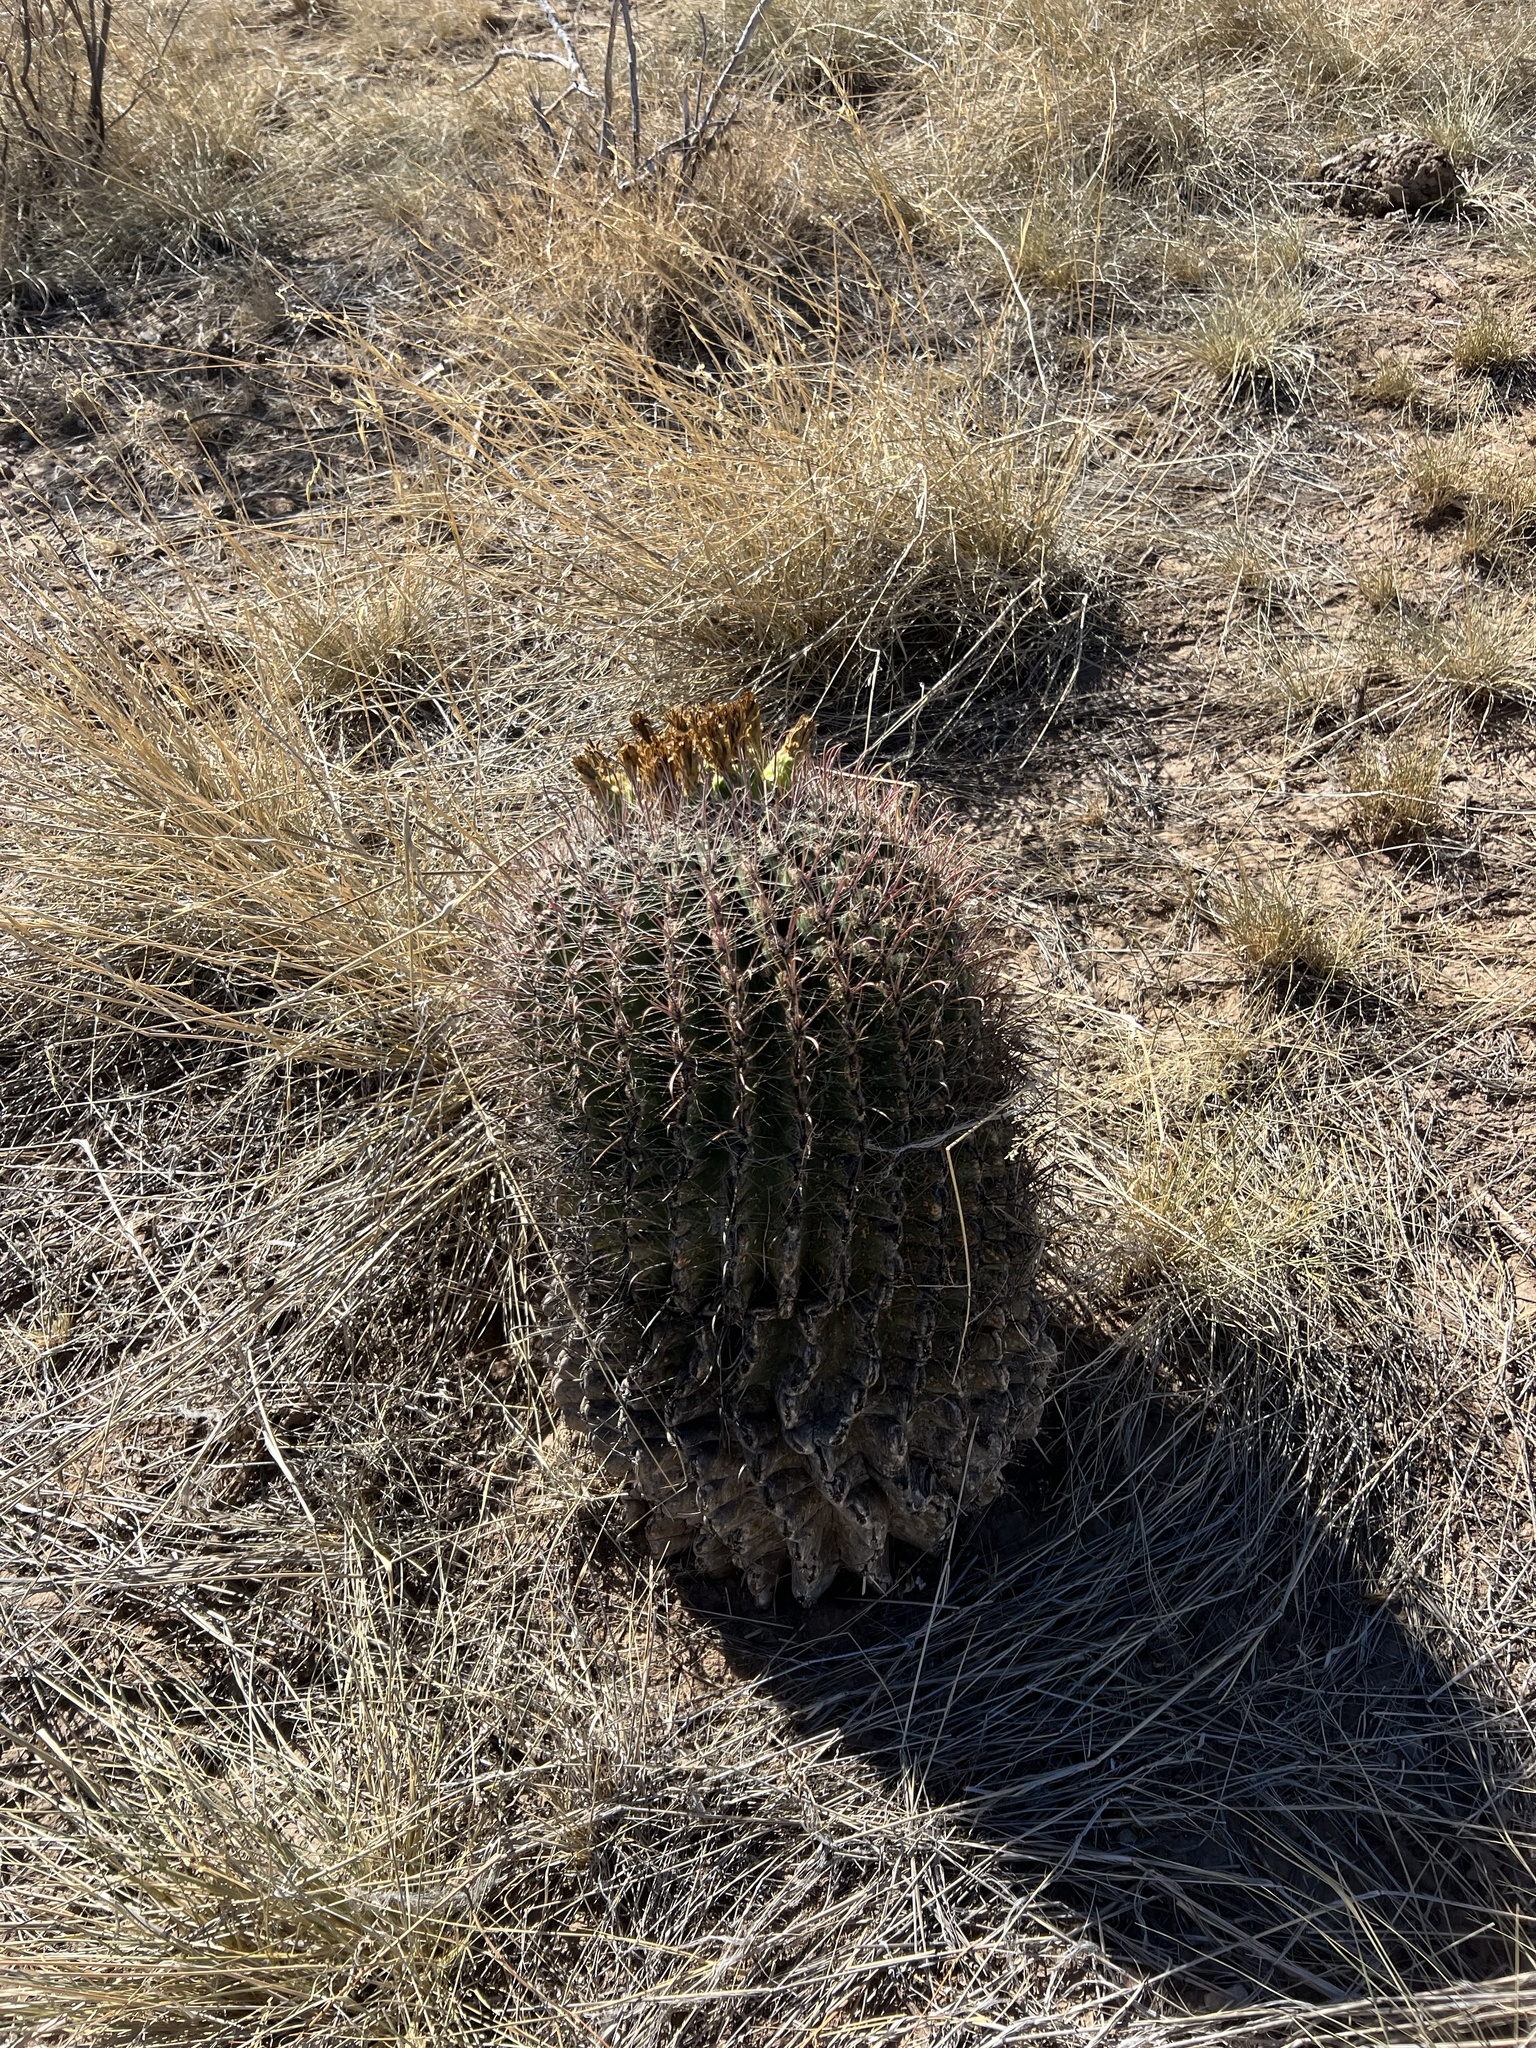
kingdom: Plantae
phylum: Tracheophyta
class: Magnoliopsida
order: Caryophyllales
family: Cactaceae
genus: Ferocactus
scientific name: Ferocactus wislizeni
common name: Candy barrel cactus
